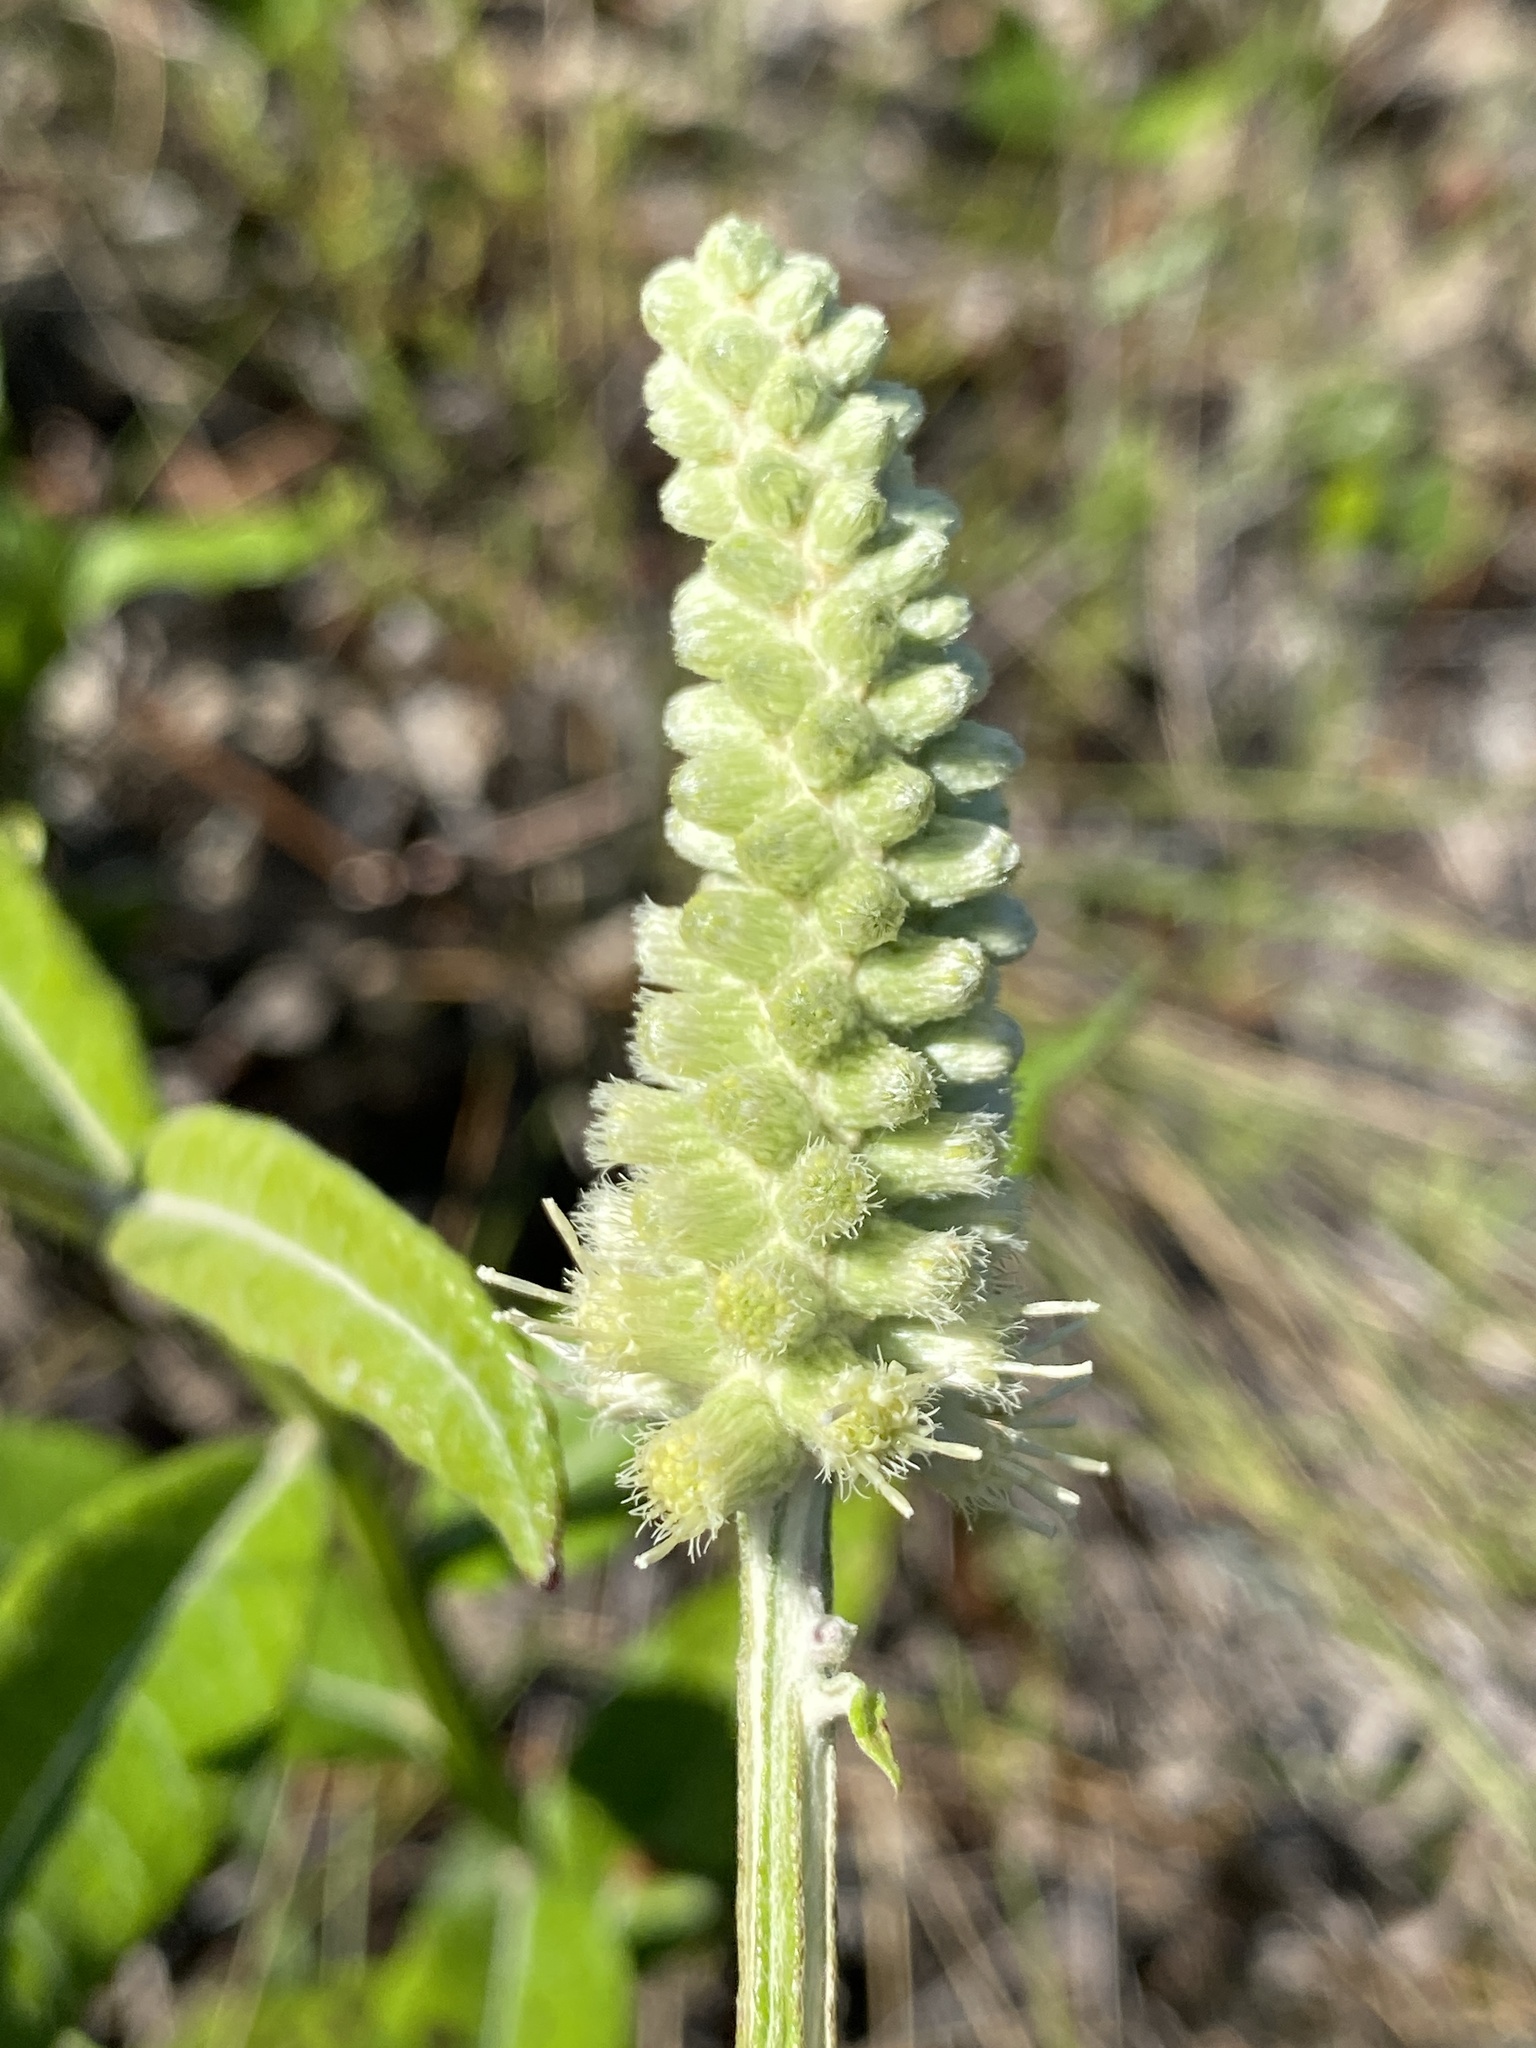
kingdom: Plantae
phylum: Tracheophyta
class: Magnoliopsida
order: Asterales
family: Asteraceae
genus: Pterocaulon
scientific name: Pterocaulon pycnostachyum
